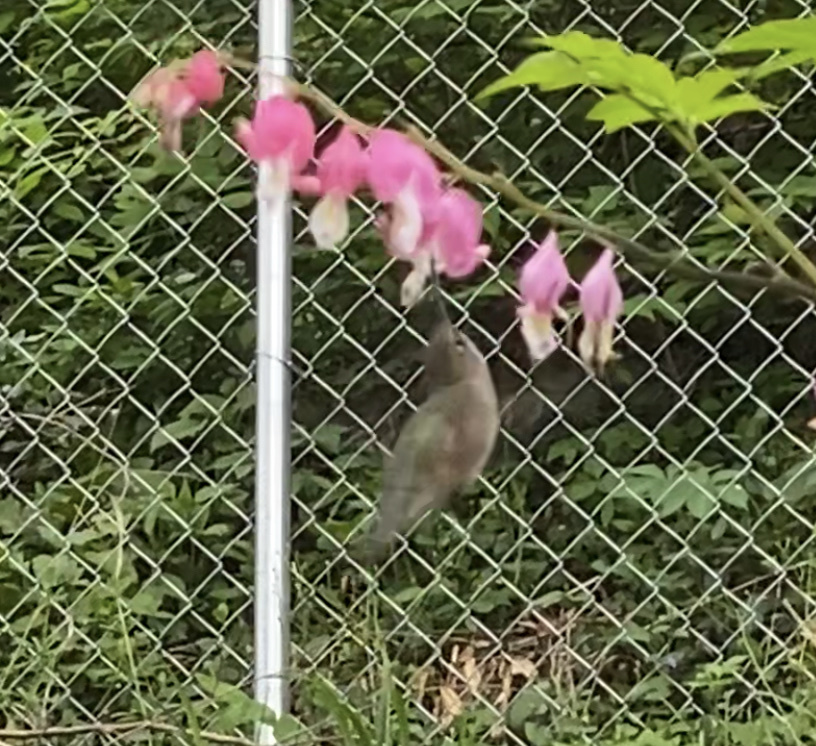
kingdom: Animalia
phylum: Chordata
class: Aves
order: Apodiformes
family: Trochilidae
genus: Archilochus
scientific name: Archilochus colubris
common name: Ruby-throated hummingbird
